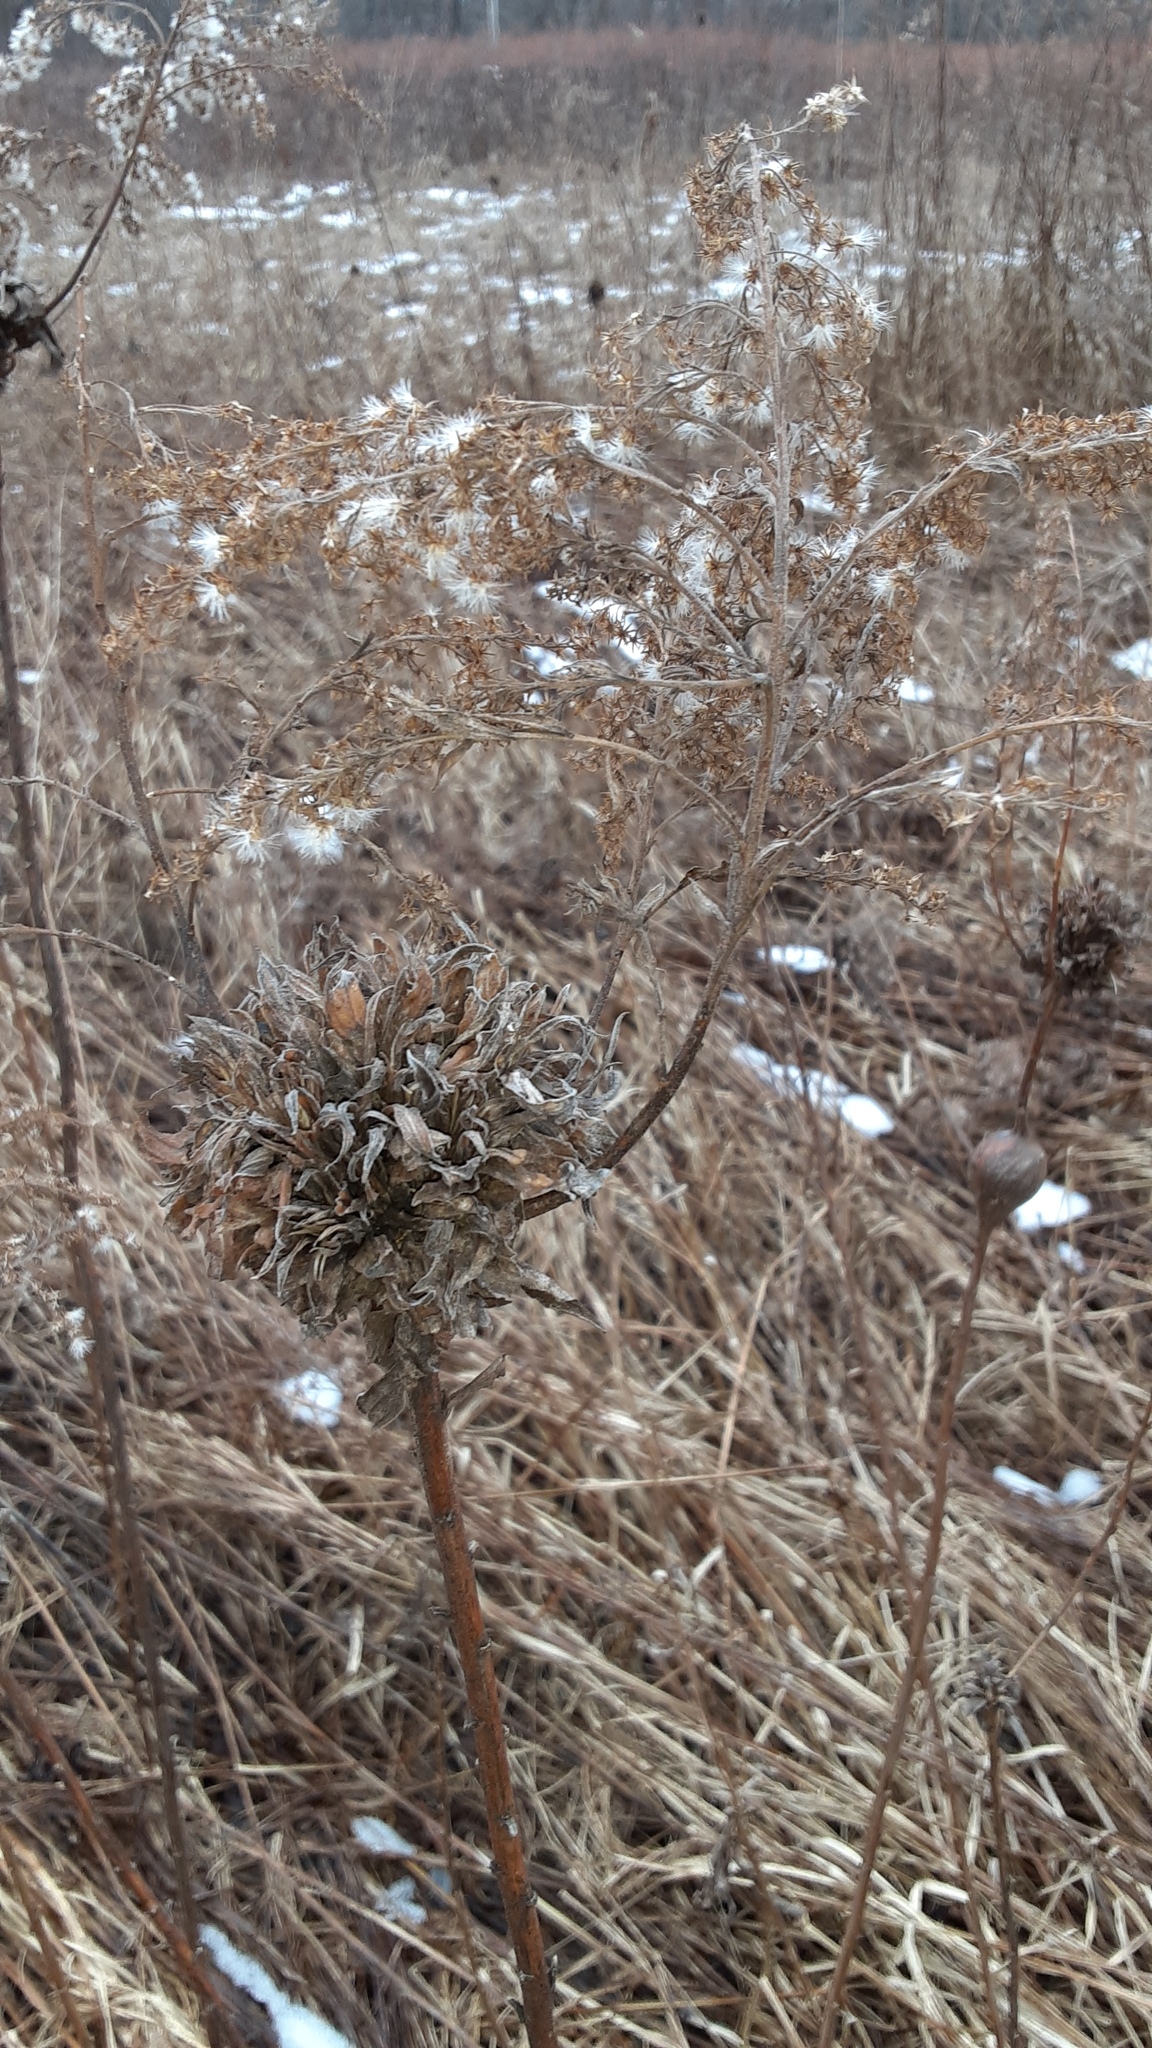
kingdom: Animalia
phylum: Arthropoda
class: Insecta
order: Diptera
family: Cecidomyiidae
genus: Rhopalomyia
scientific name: Rhopalomyia solidaginis
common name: Goldenrod bunch gall midge
